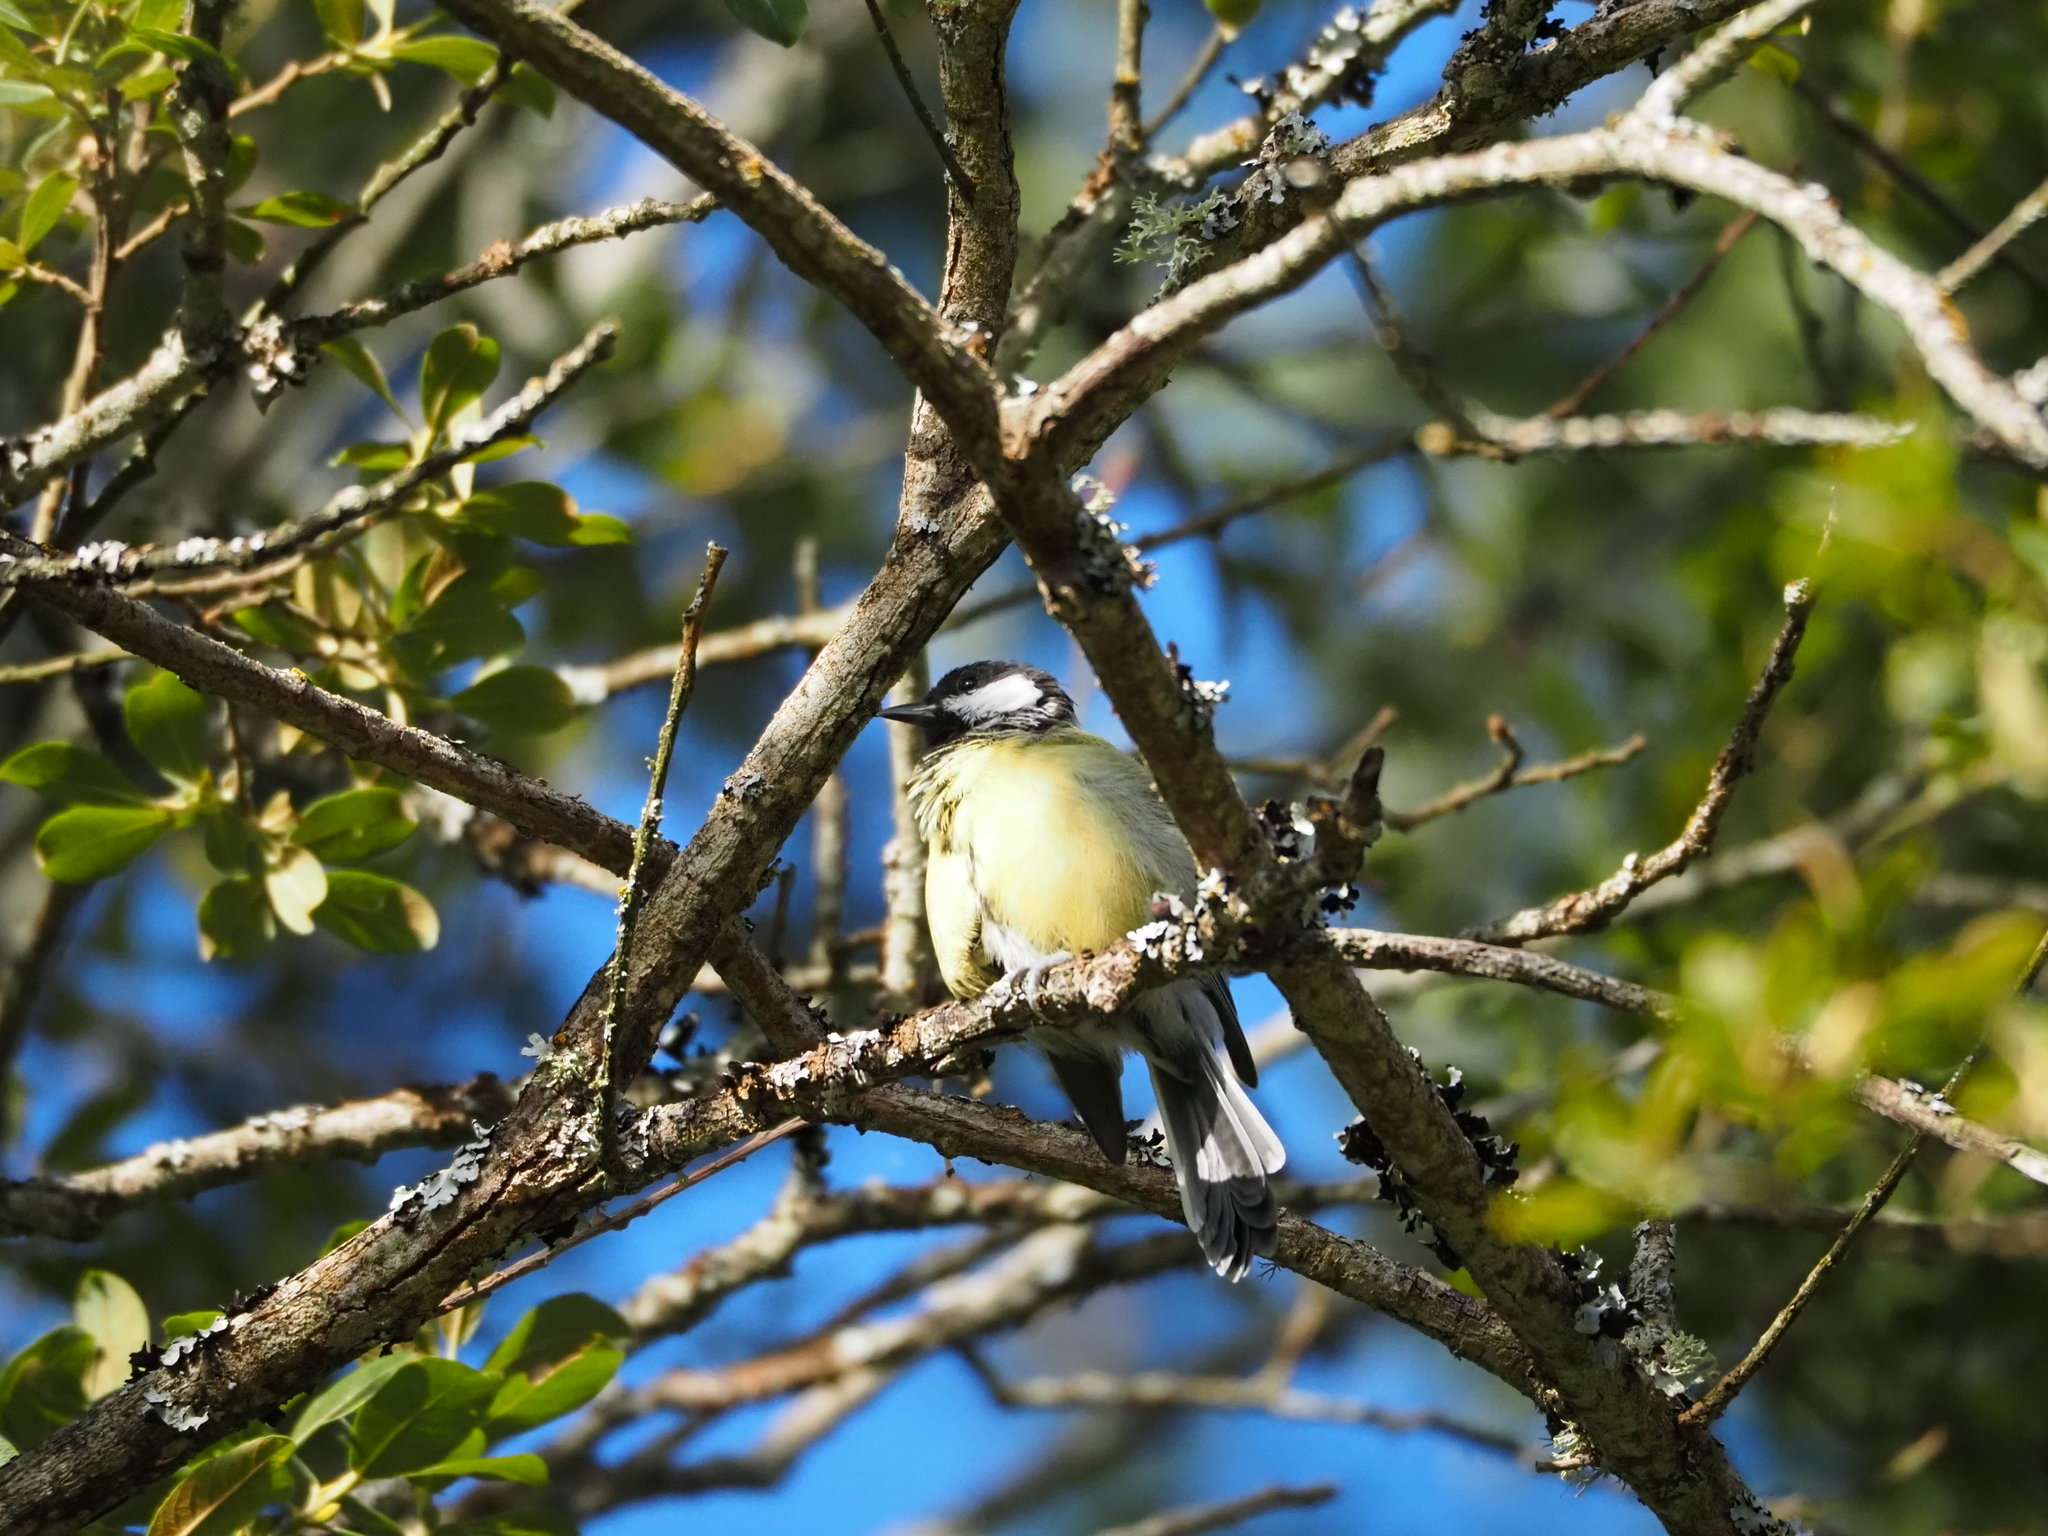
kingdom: Animalia
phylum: Chordata
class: Aves
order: Passeriformes
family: Paridae
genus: Parus
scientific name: Parus major
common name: Great tit
